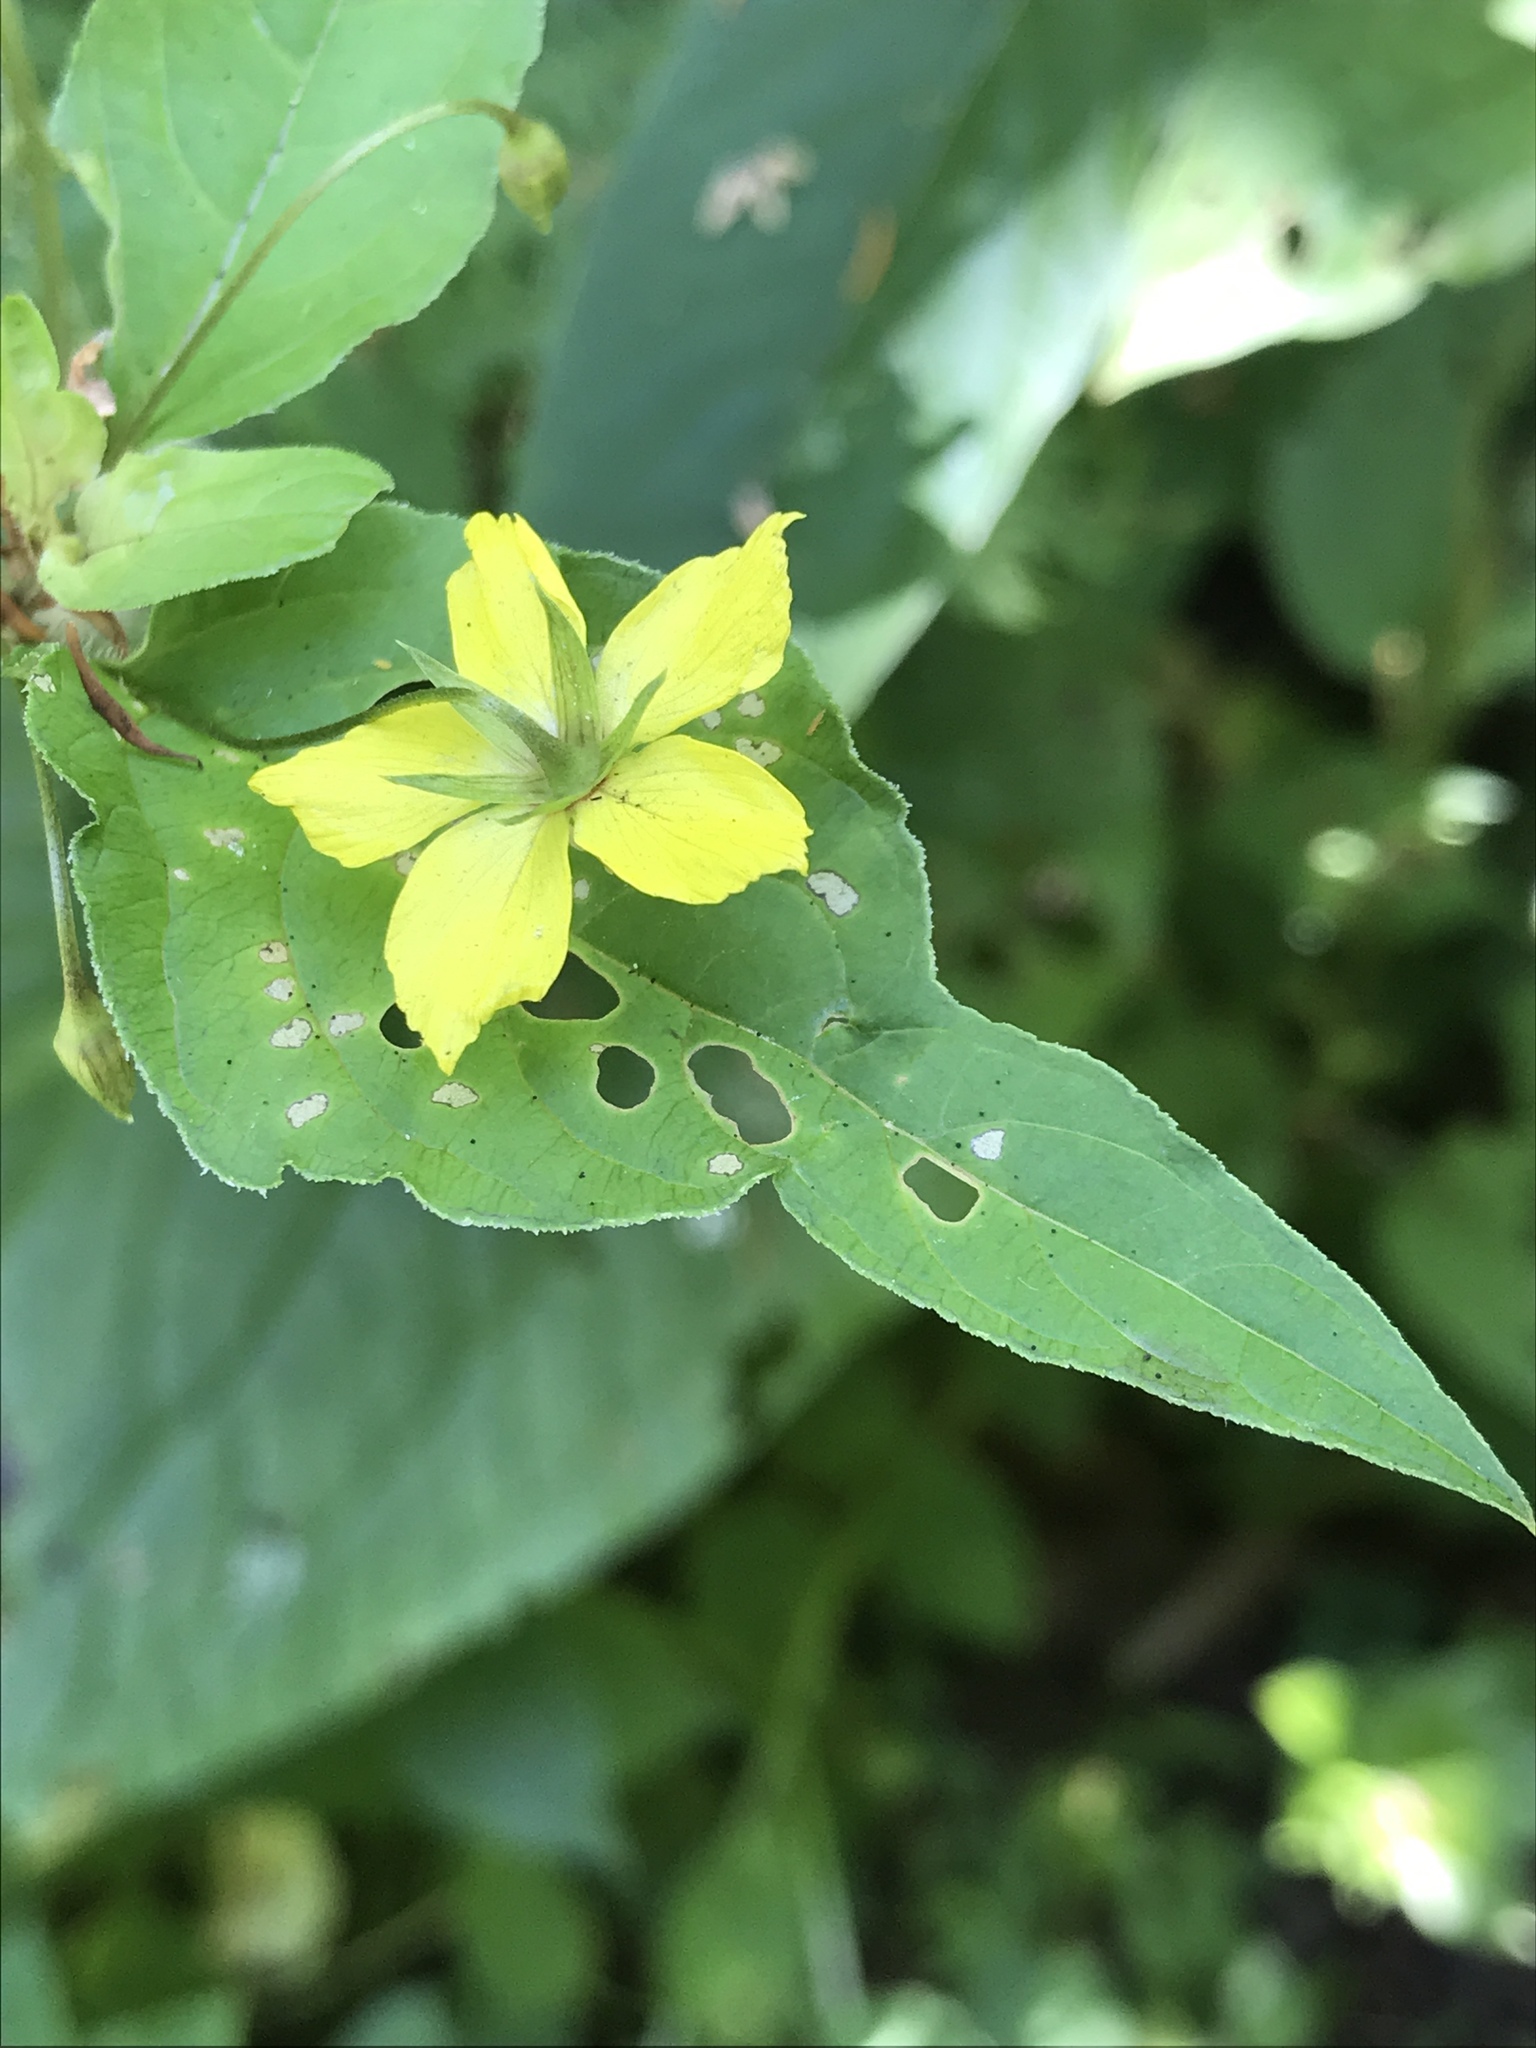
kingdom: Plantae
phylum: Tracheophyta
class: Magnoliopsida
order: Ericales
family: Primulaceae
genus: Lysimachia
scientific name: Lysimachia ciliata
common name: Fringed loosestrife
